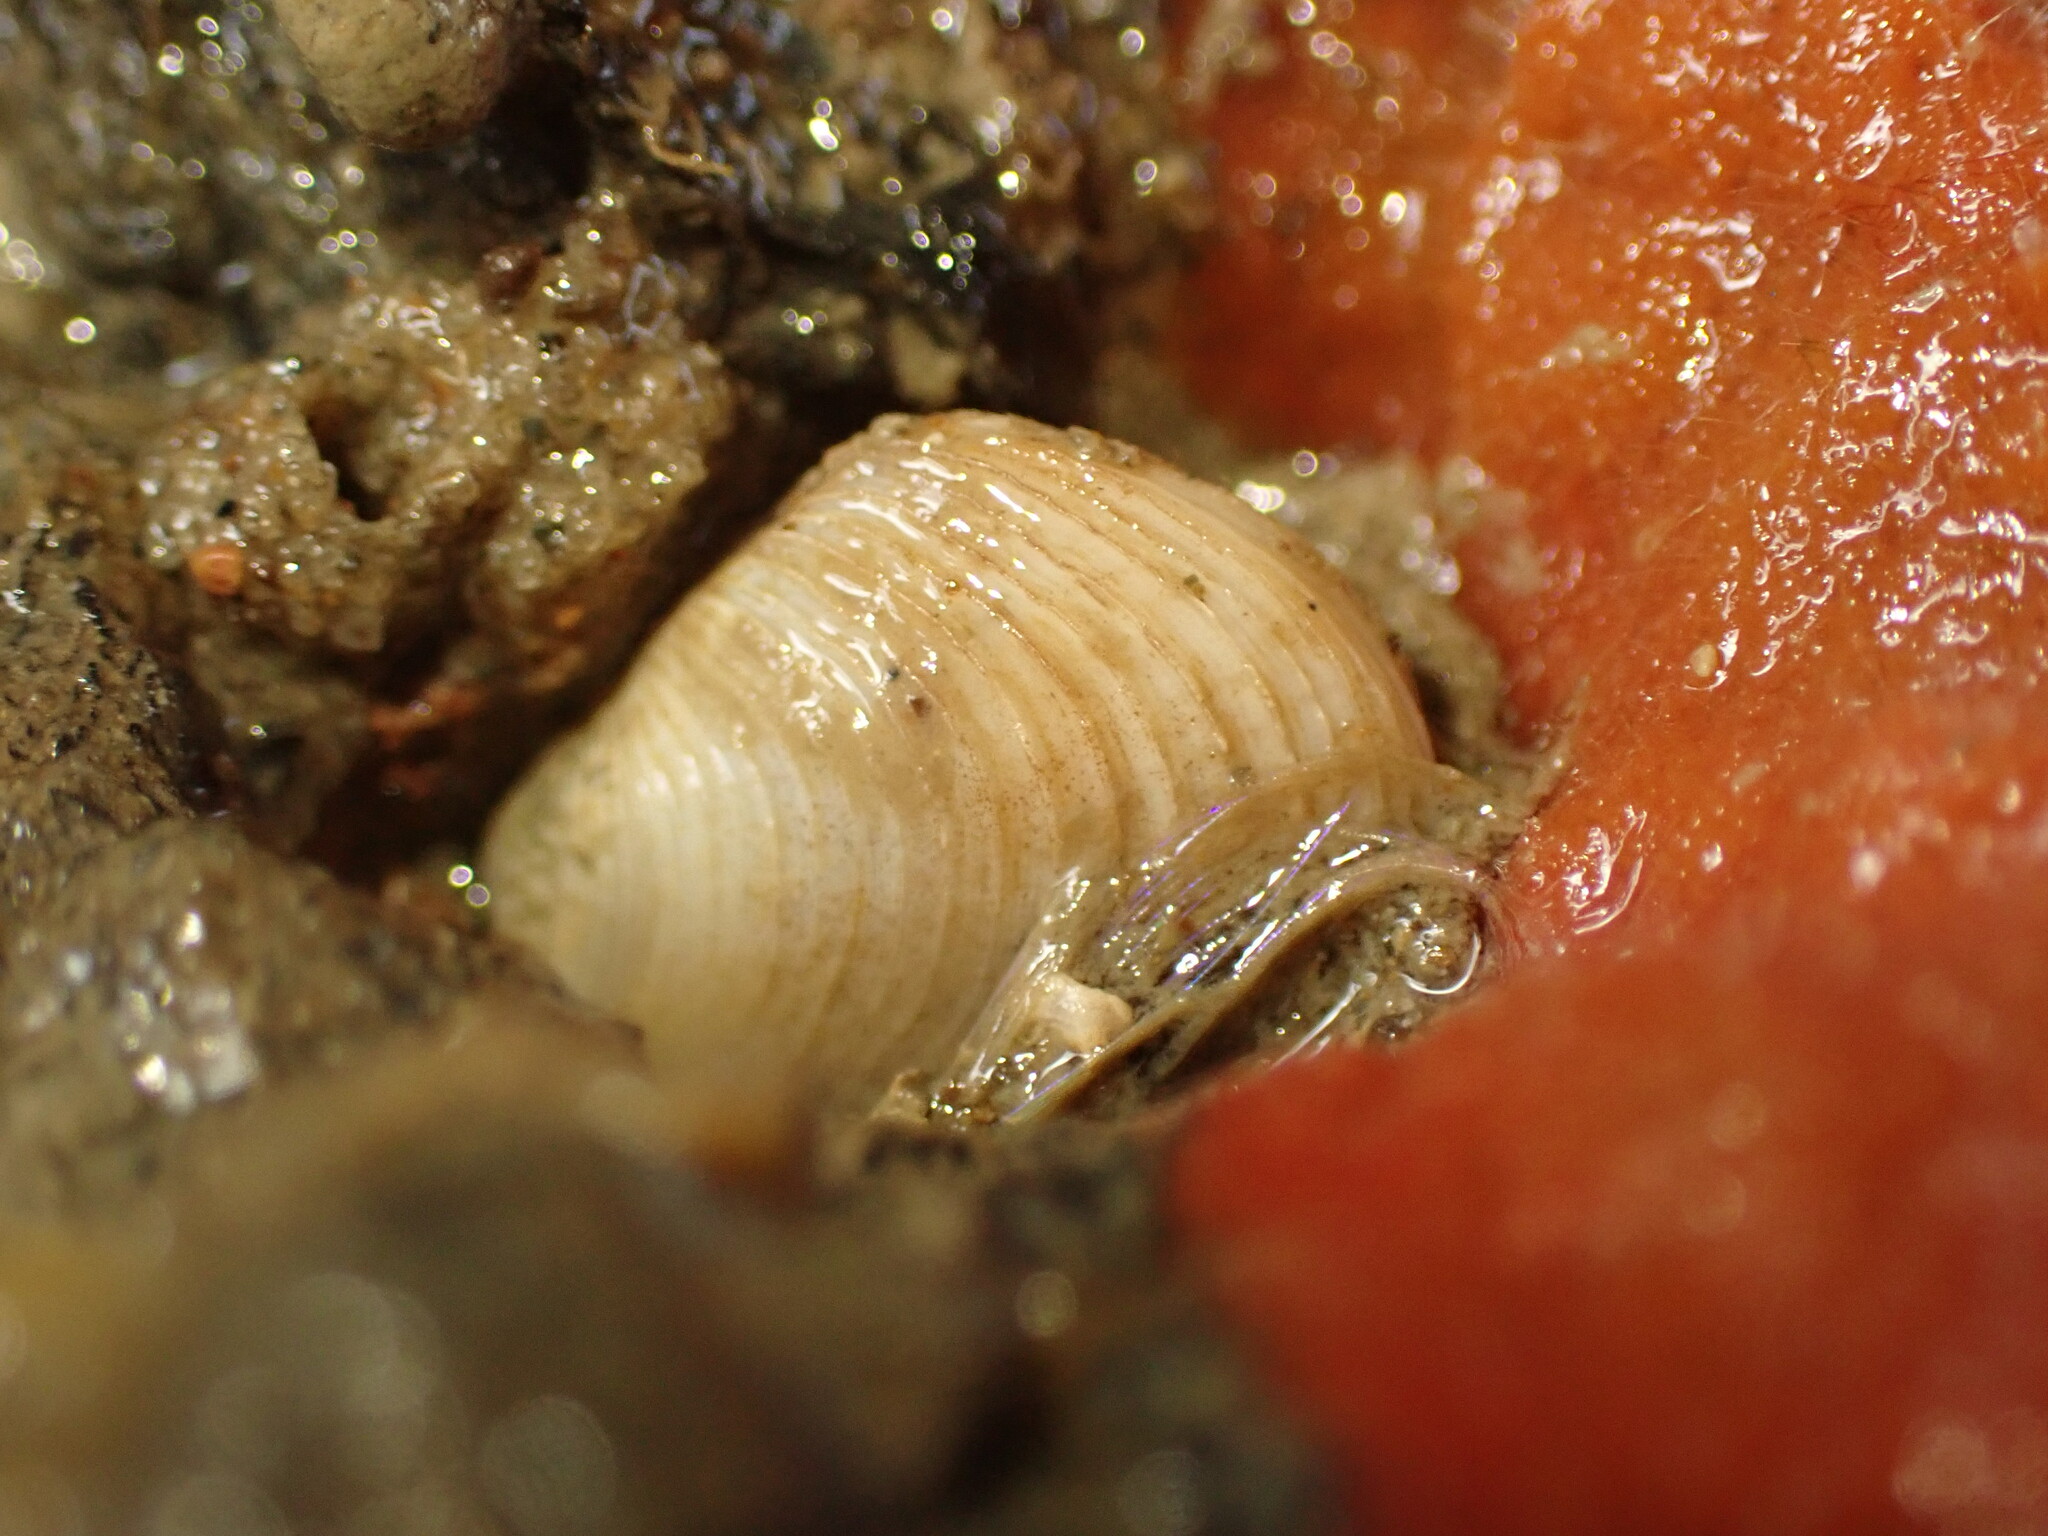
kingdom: Animalia
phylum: Mollusca
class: Bivalvia
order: Venerida
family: Veneridae
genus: Venerupis
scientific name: Venerupis largillierti
